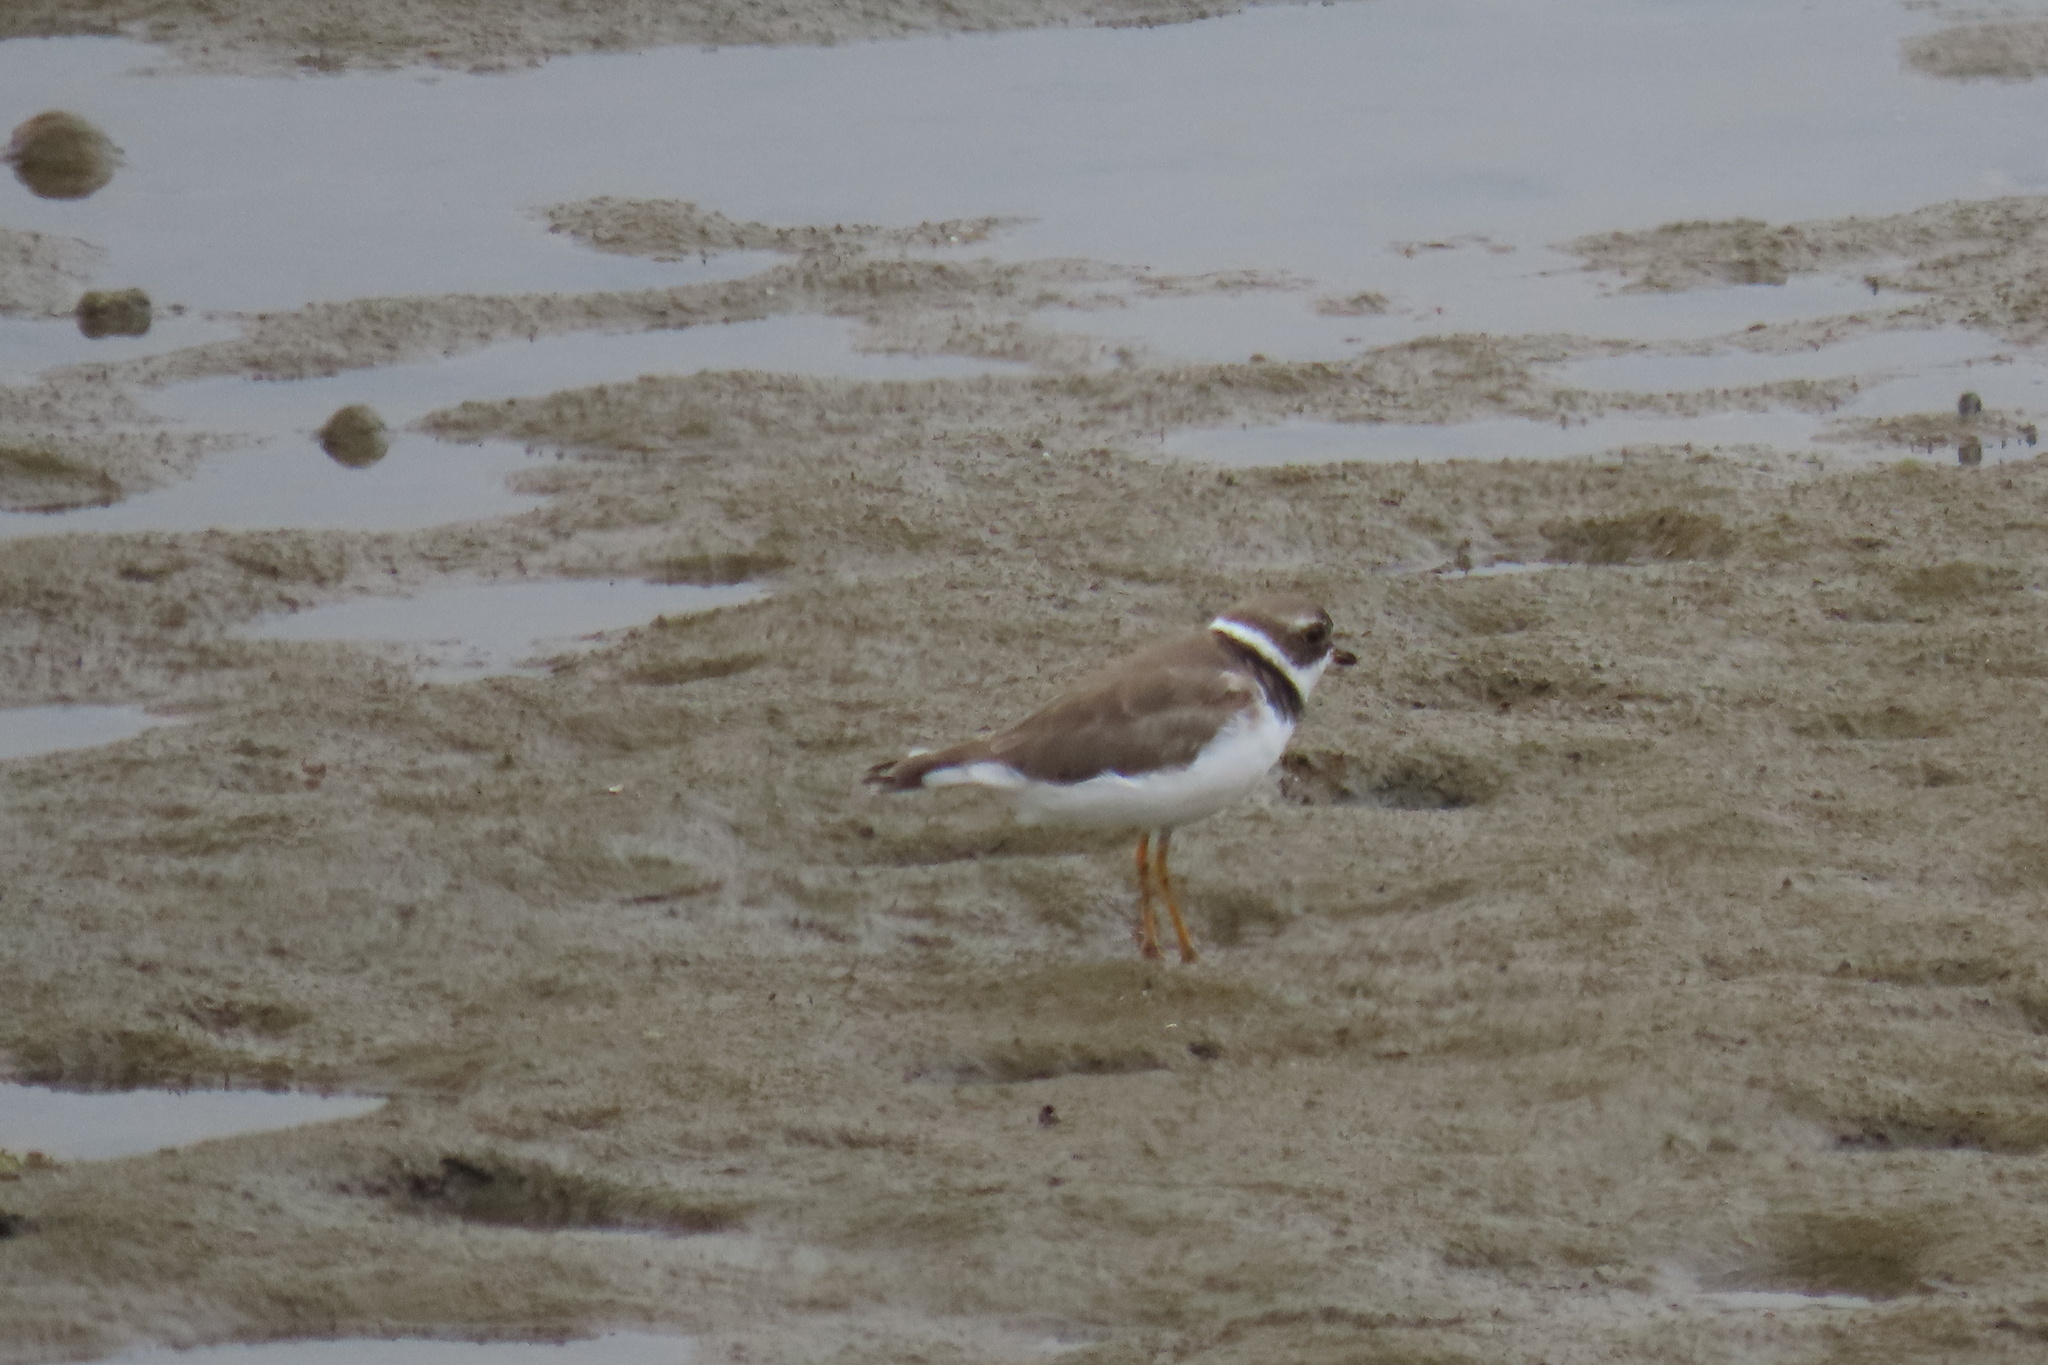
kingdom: Animalia
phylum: Chordata
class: Aves
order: Charadriiformes
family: Charadriidae
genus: Charadrius
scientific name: Charadrius semipalmatus
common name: Semipalmated plover
